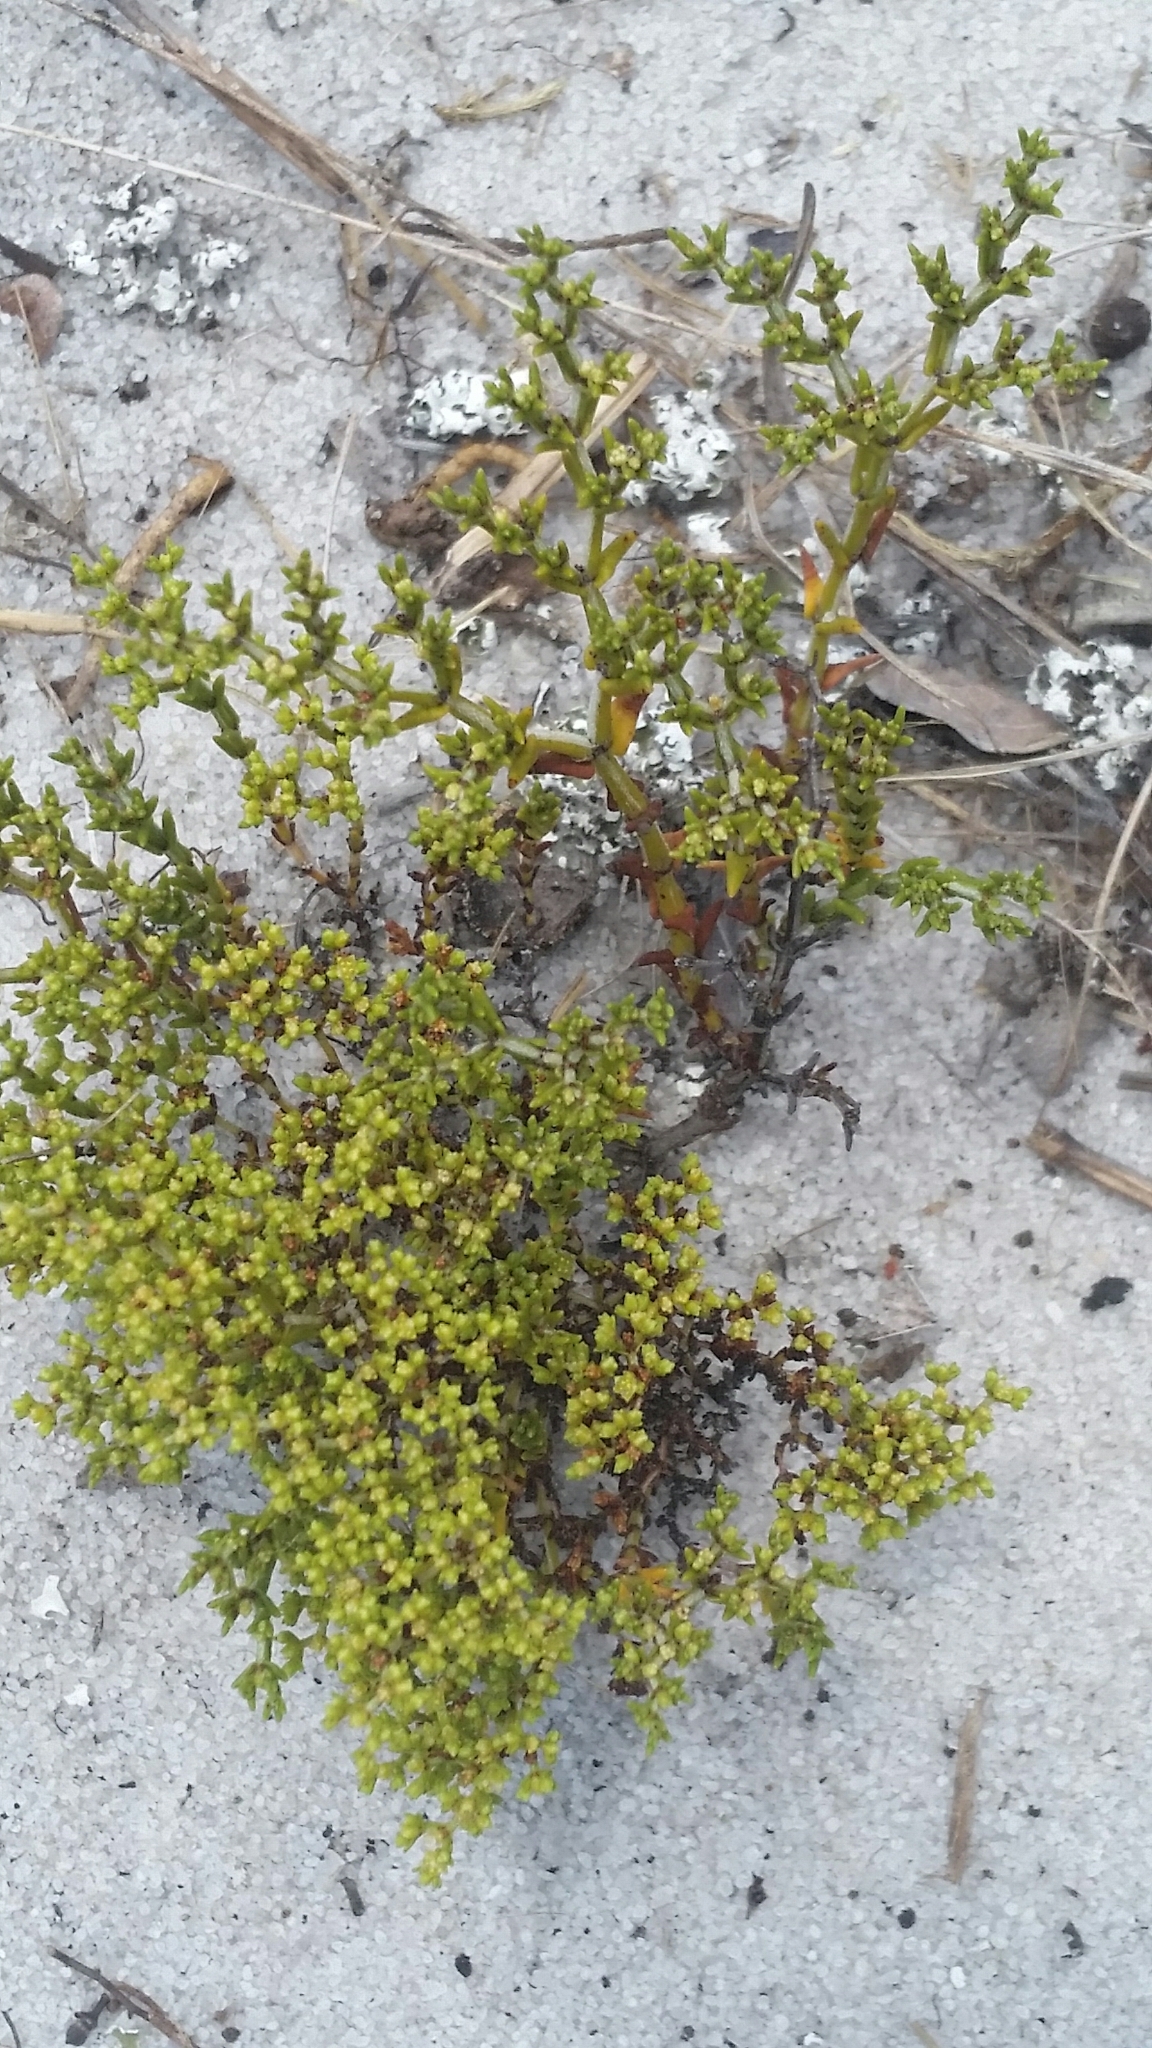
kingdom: Plantae
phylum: Tracheophyta
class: Magnoliopsida
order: Caryophyllales
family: Caryophyllaceae
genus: Paronychia
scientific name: Paronychia chartacea
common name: Paper nailwort
